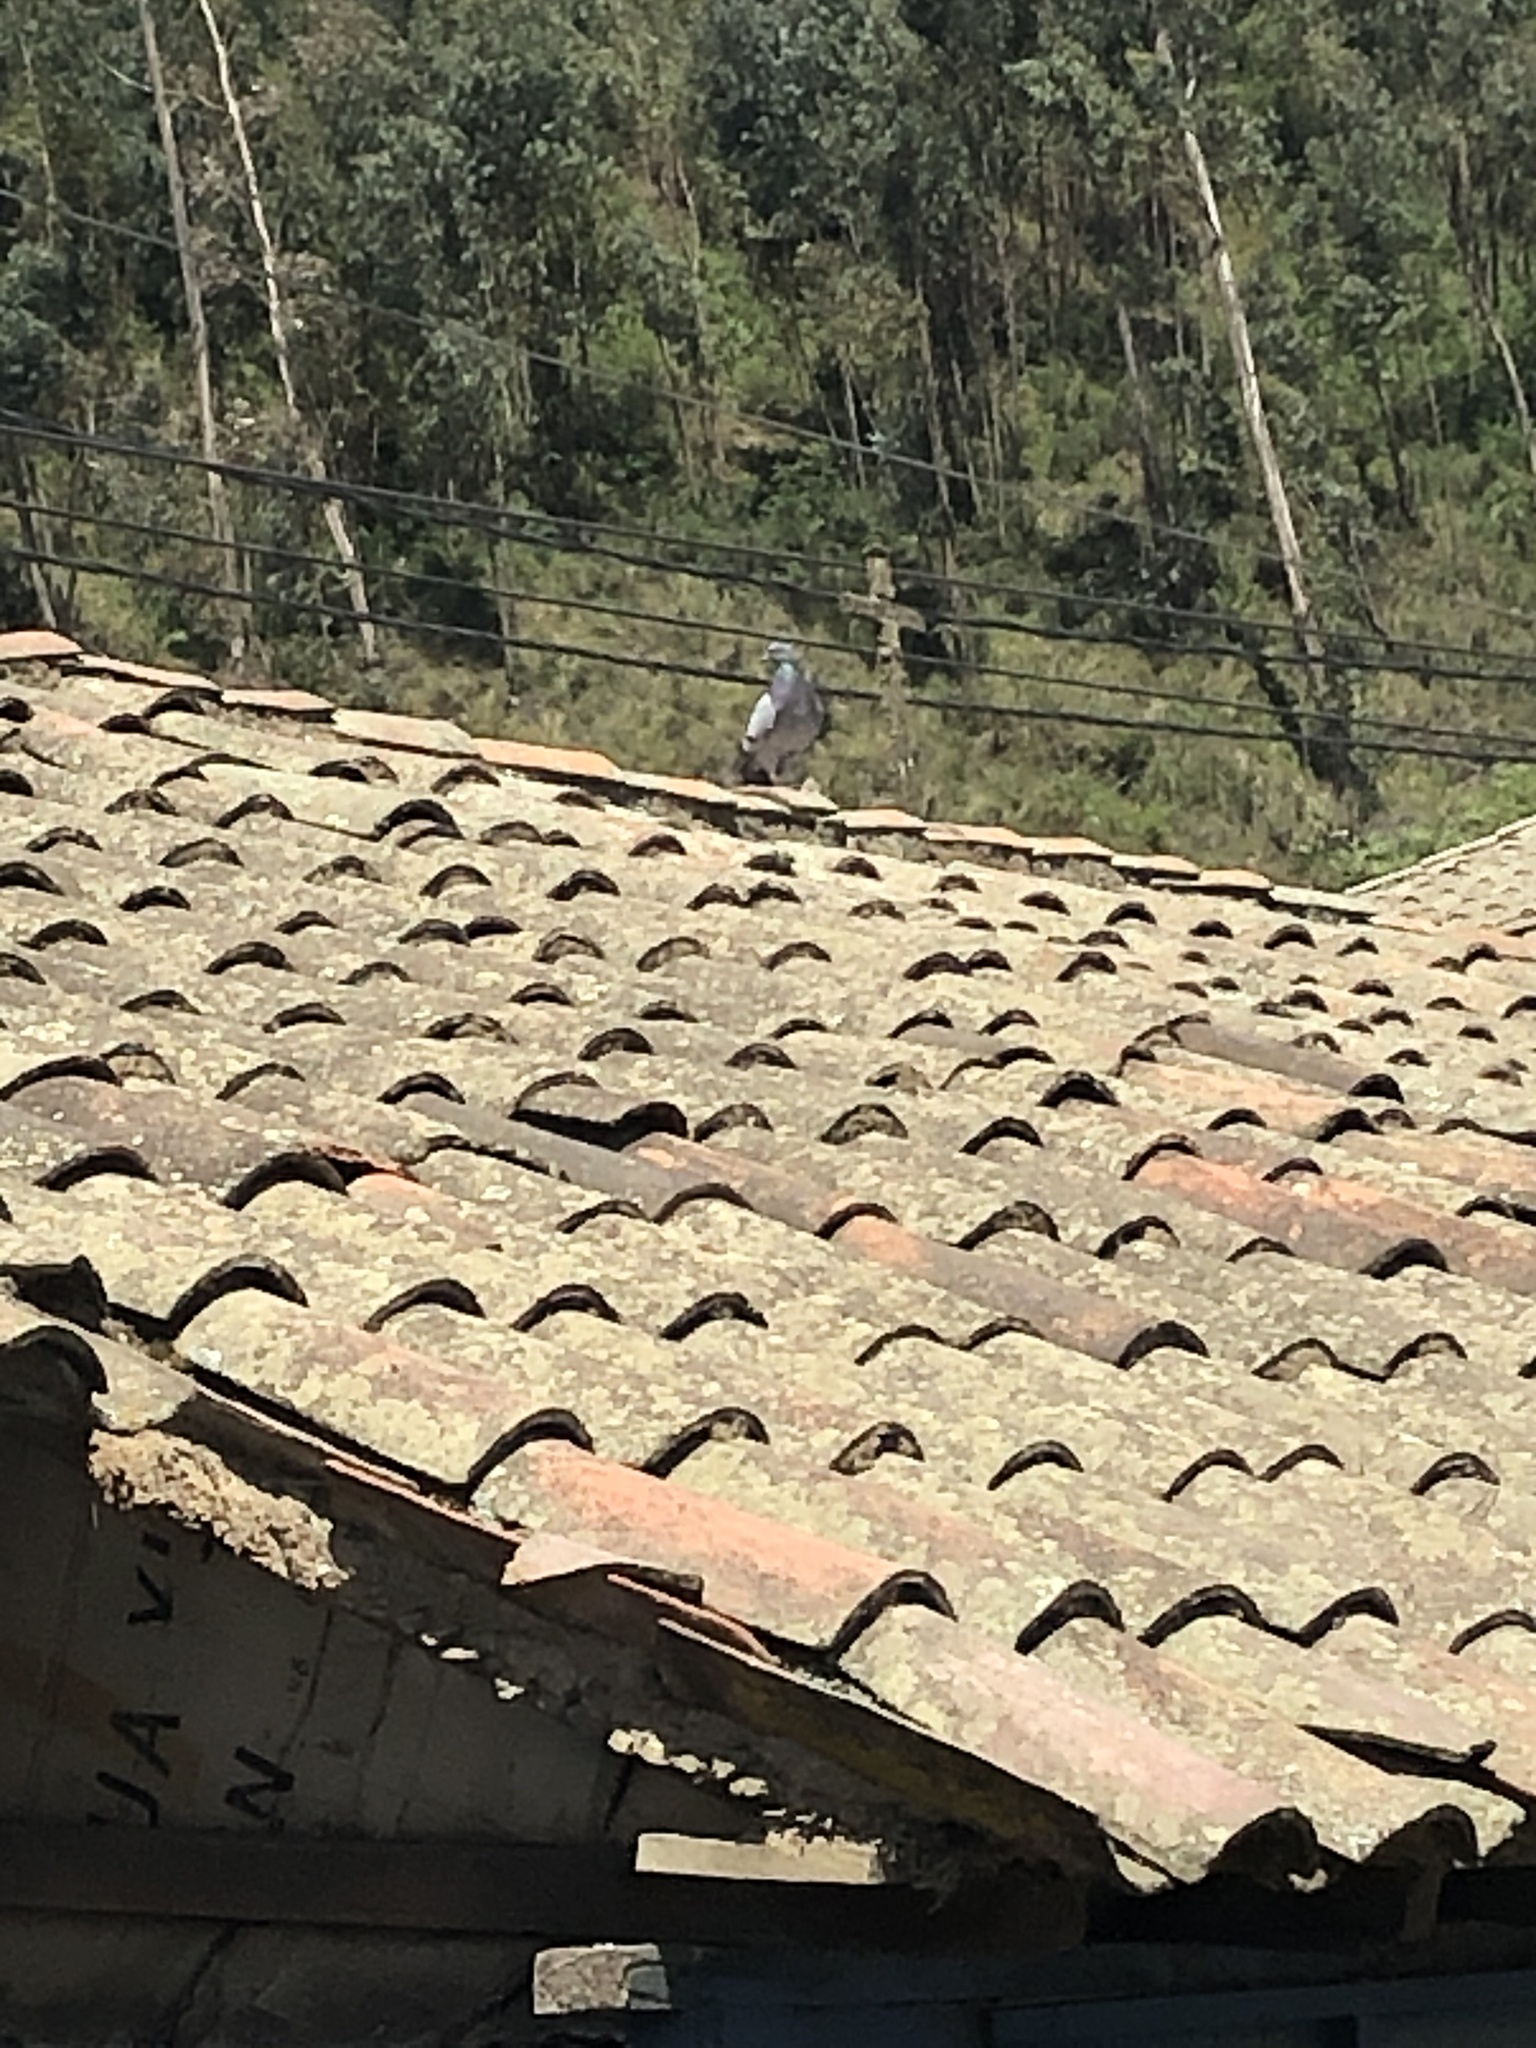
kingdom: Animalia
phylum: Chordata
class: Aves
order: Columbiformes
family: Columbidae
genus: Columba
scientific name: Columba livia
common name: Rock pigeon
